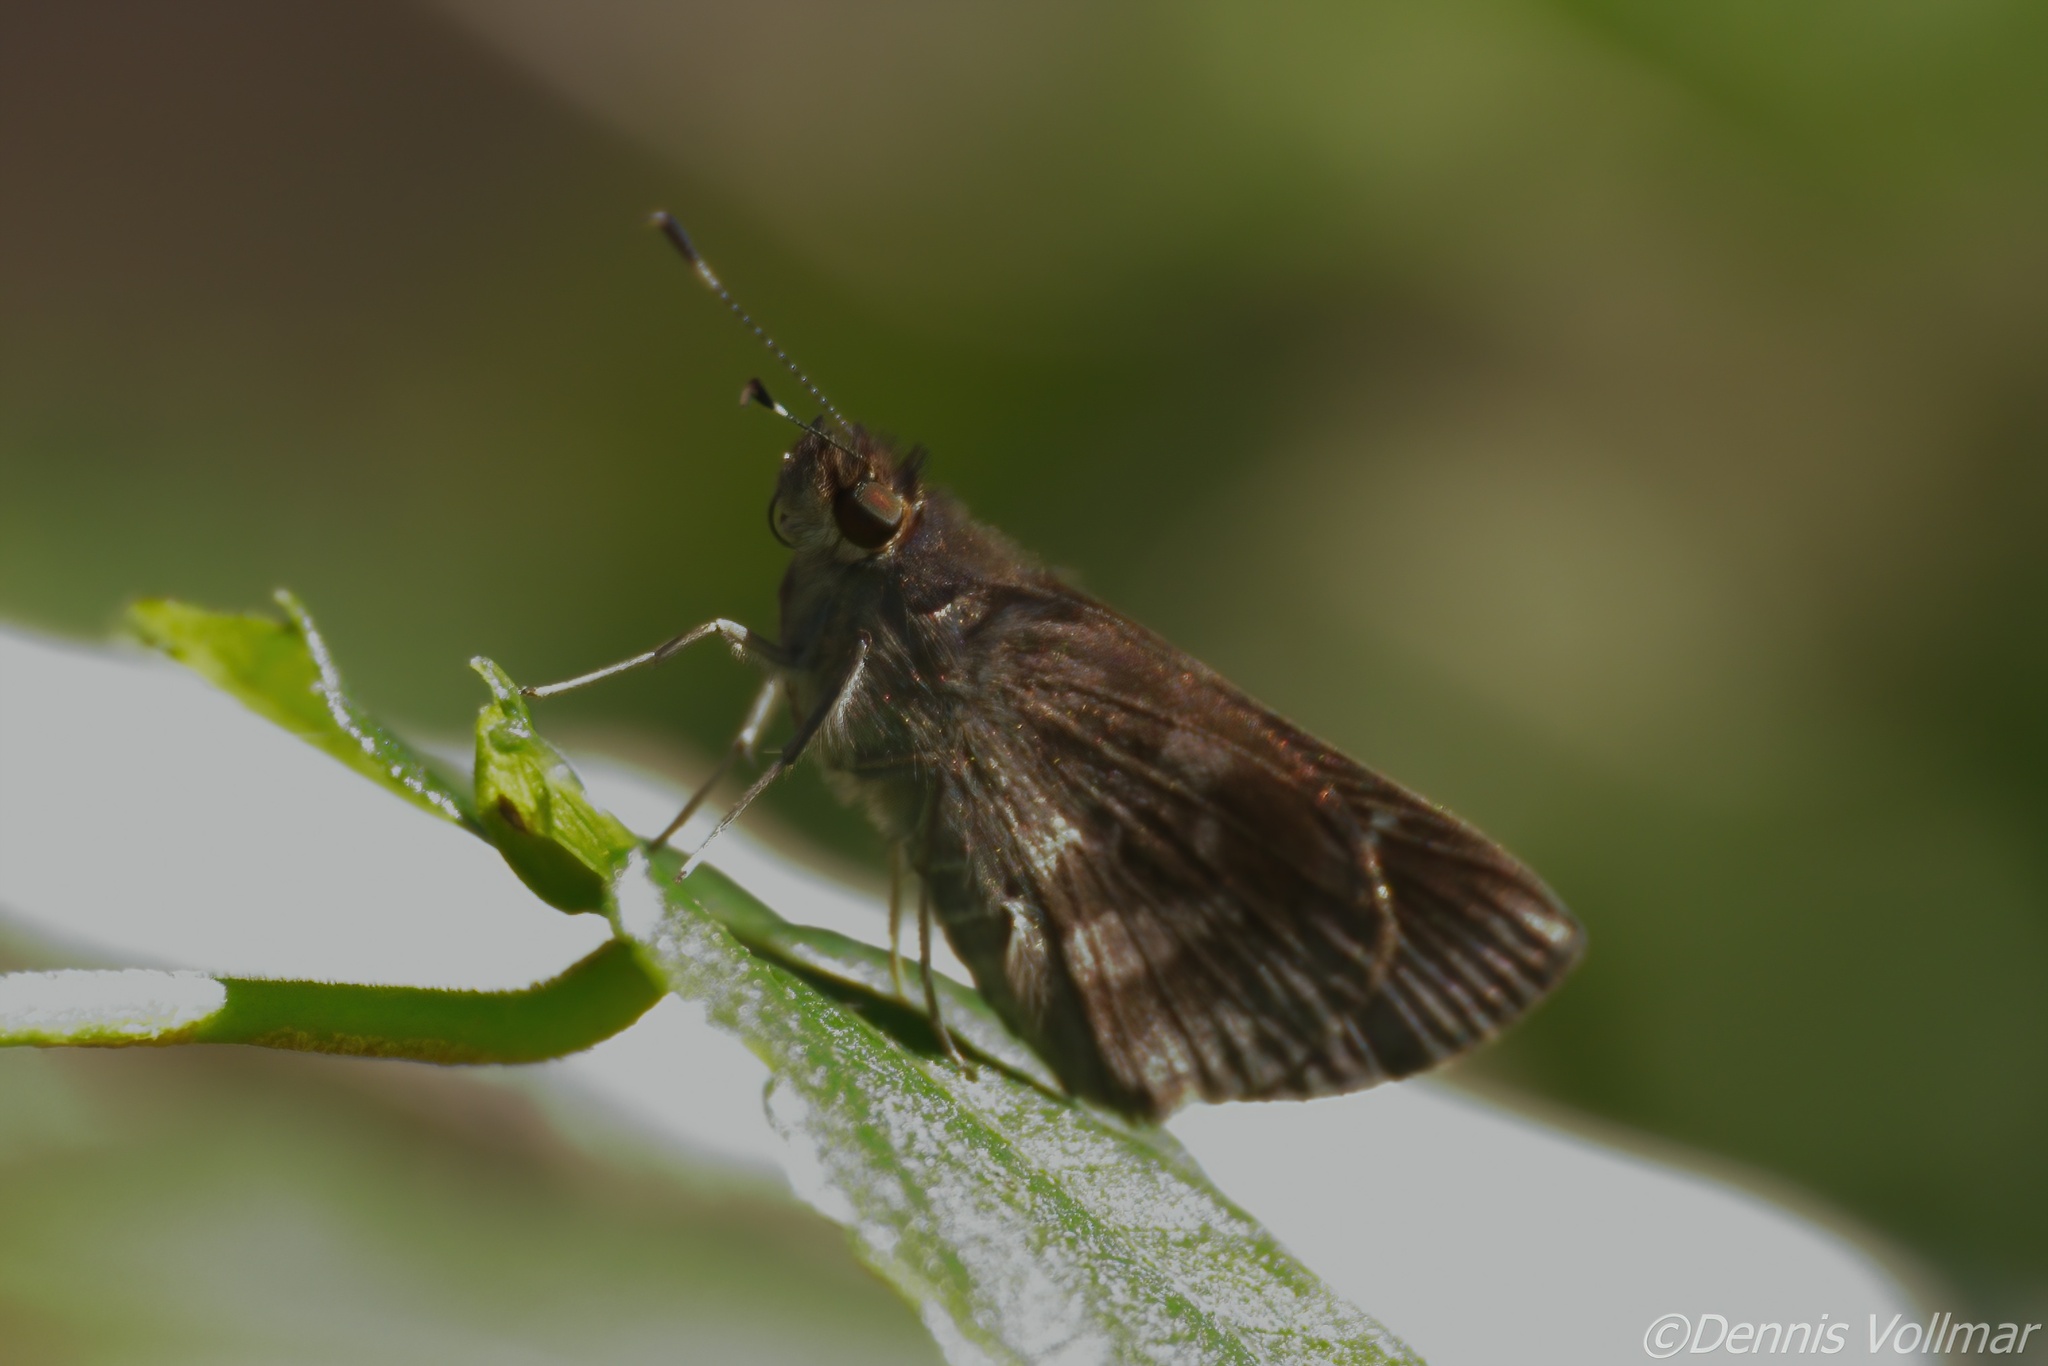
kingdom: Animalia
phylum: Arthropoda
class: Insecta
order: Lepidoptera
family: Hesperiidae
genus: Cymaenes
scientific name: Cymaenes
